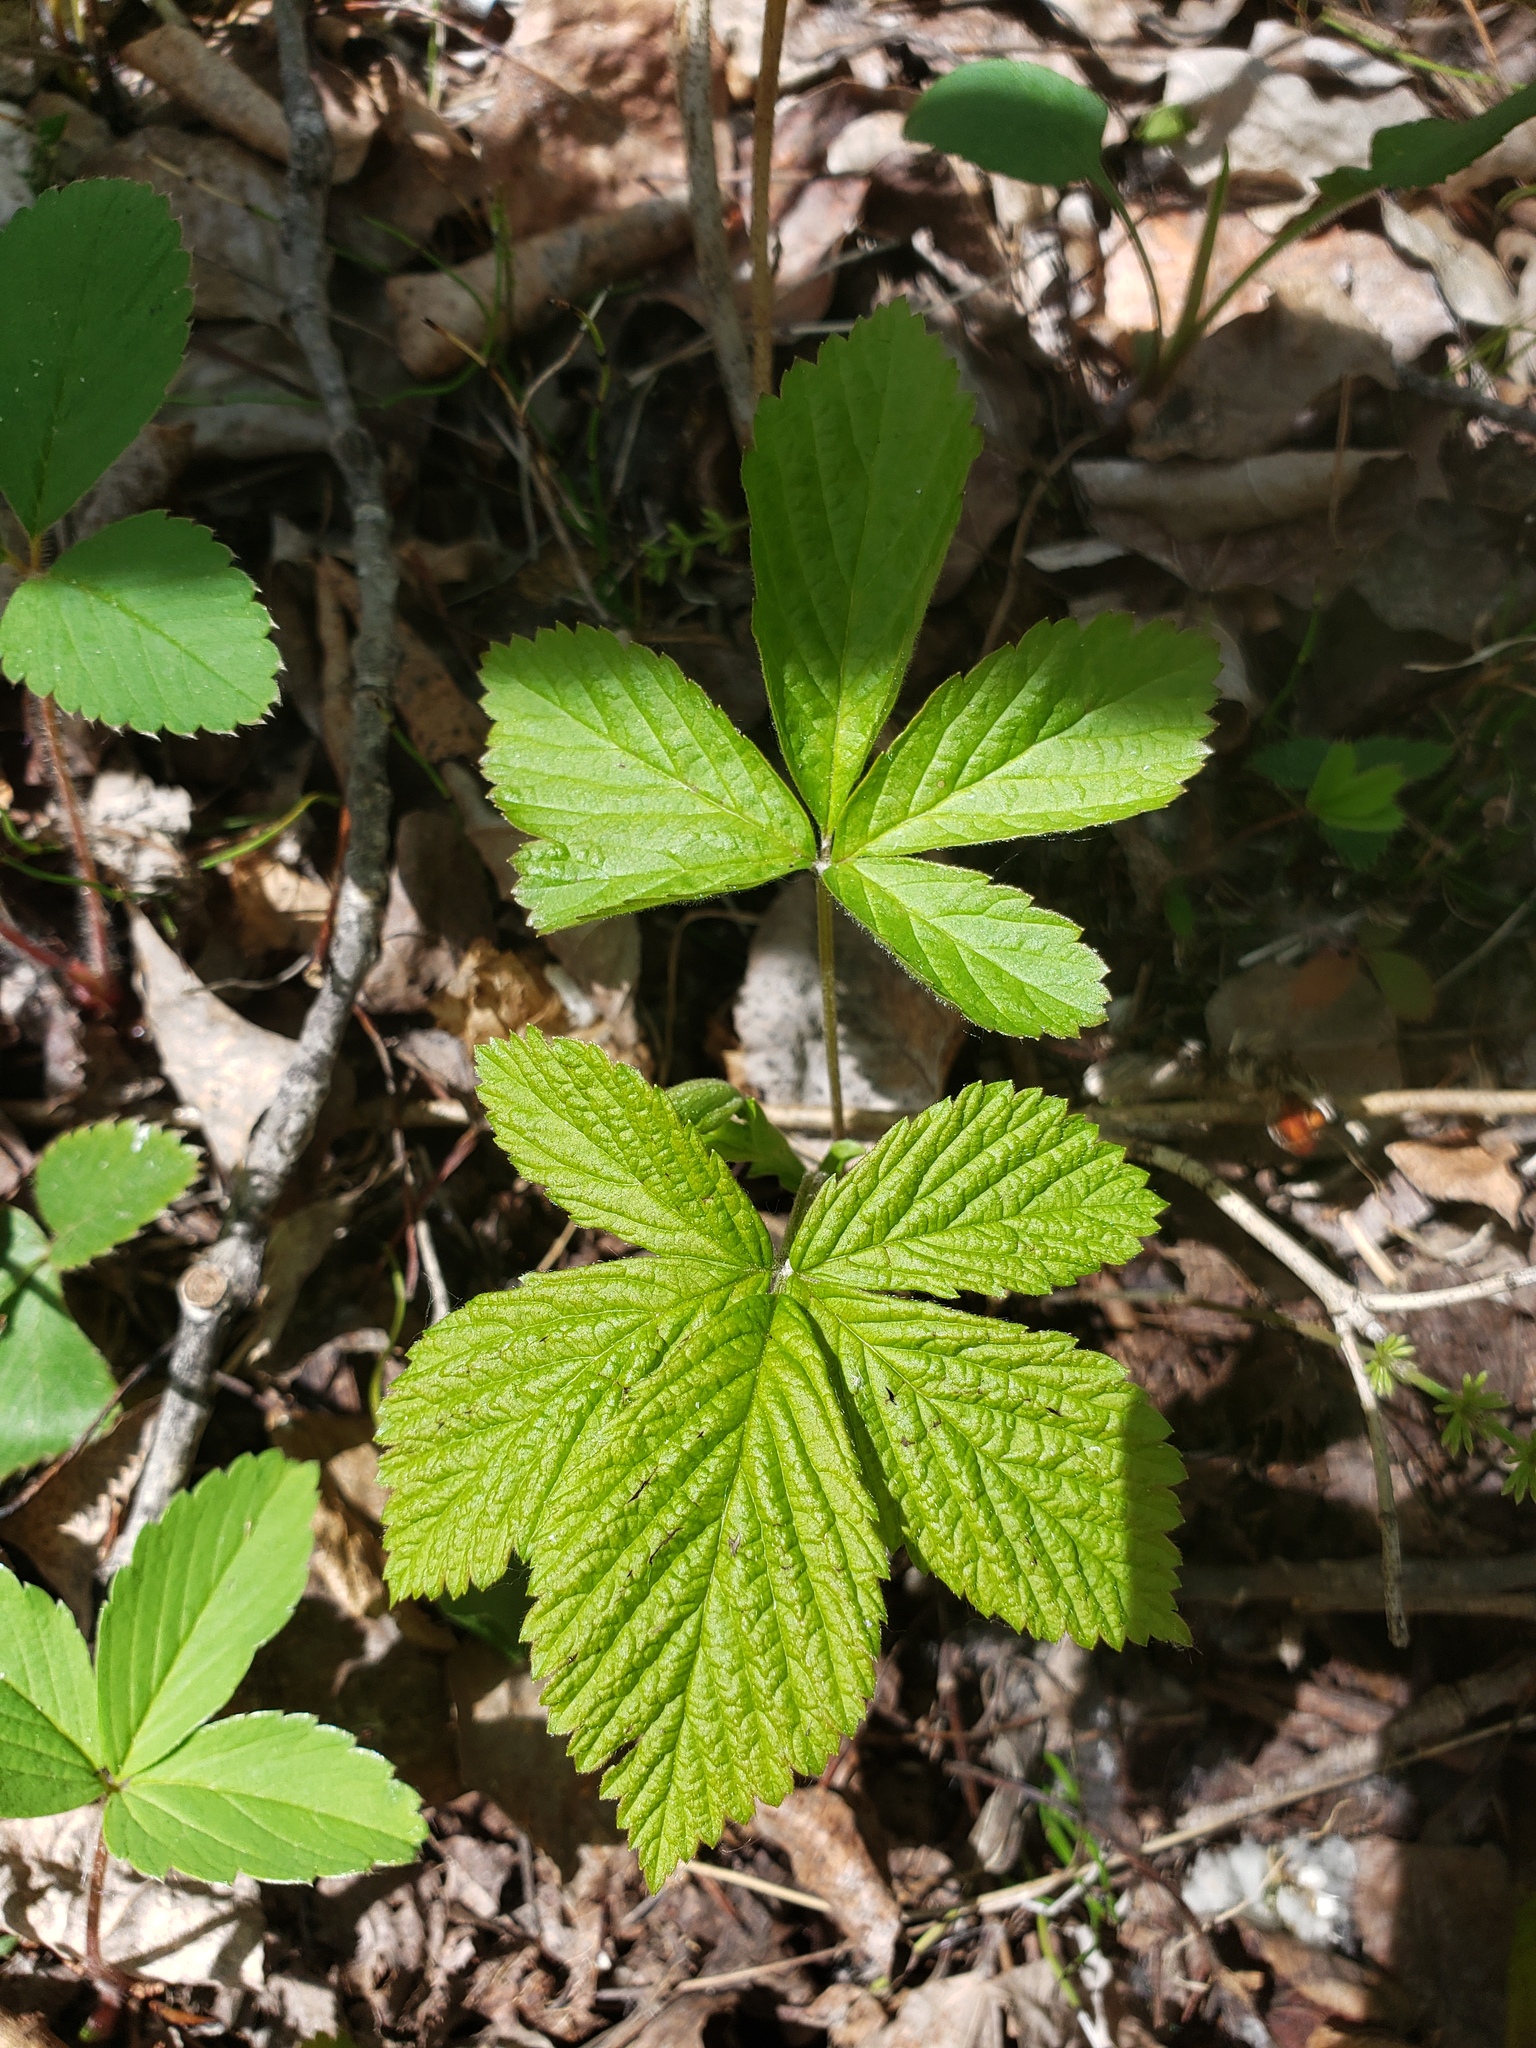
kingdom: Plantae
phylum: Tracheophyta
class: Magnoliopsida
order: Rosales
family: Rosaceae
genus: Rubus
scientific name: Rubus pubescens
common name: Dwarf raspberry
